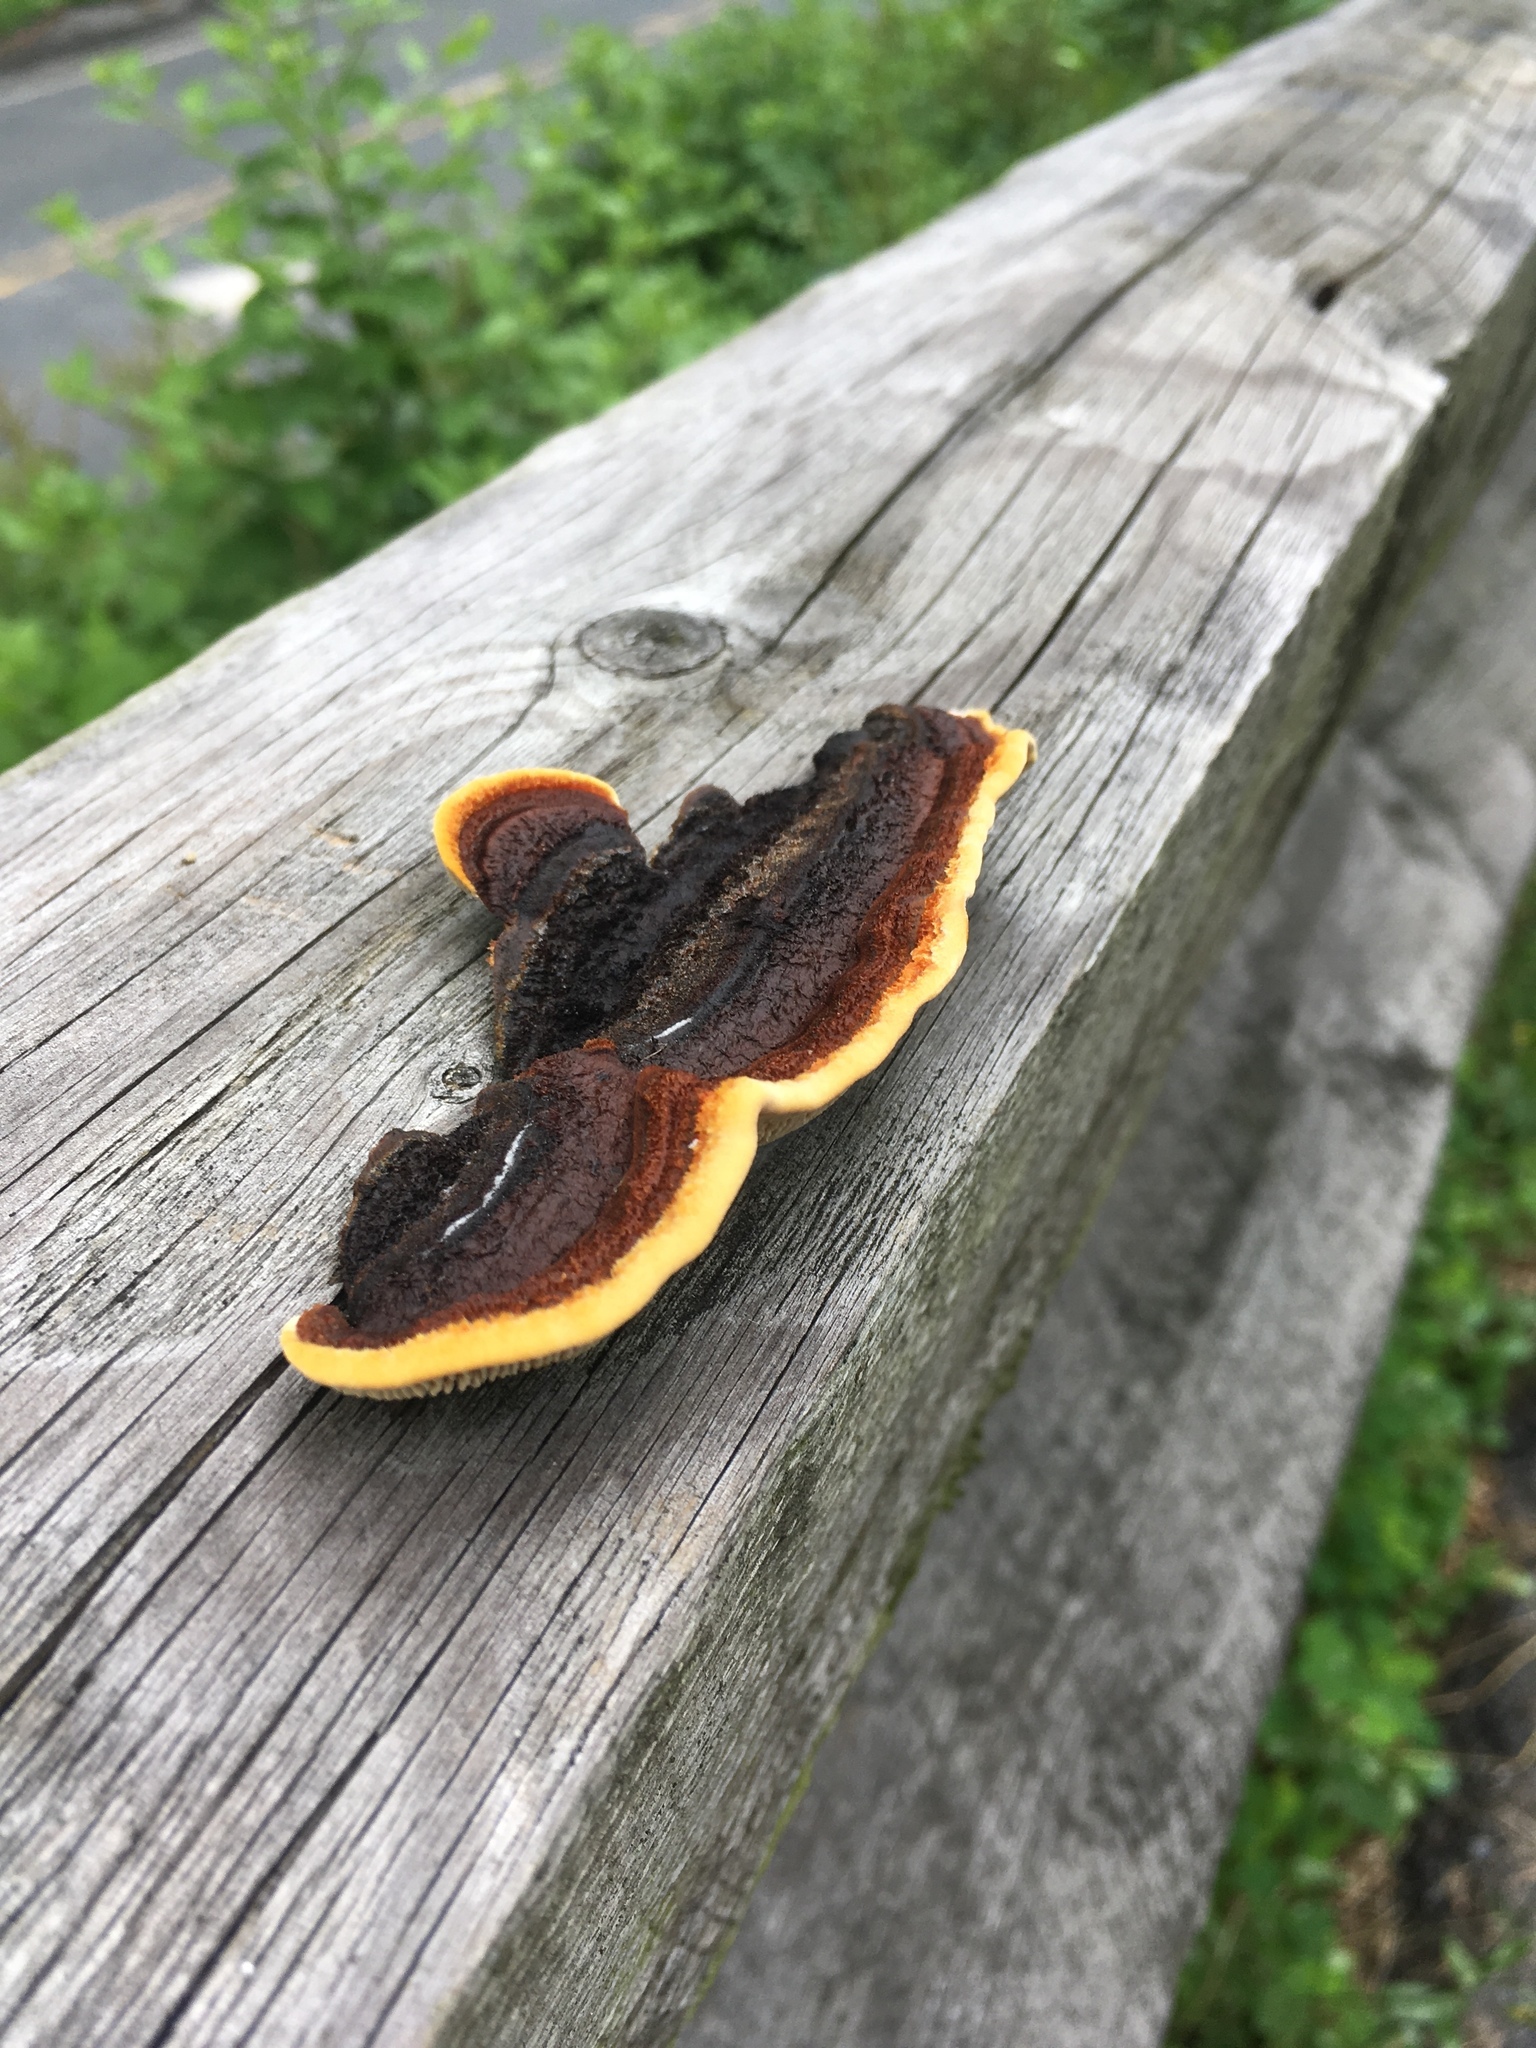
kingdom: Fungi
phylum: Basidiomycota
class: Agaricomycetes
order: Gloeophyllales
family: Gloeophyllaceae
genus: Gloeophyllum
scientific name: Gloeophyllum sepiarium
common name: Conifer mazegill
